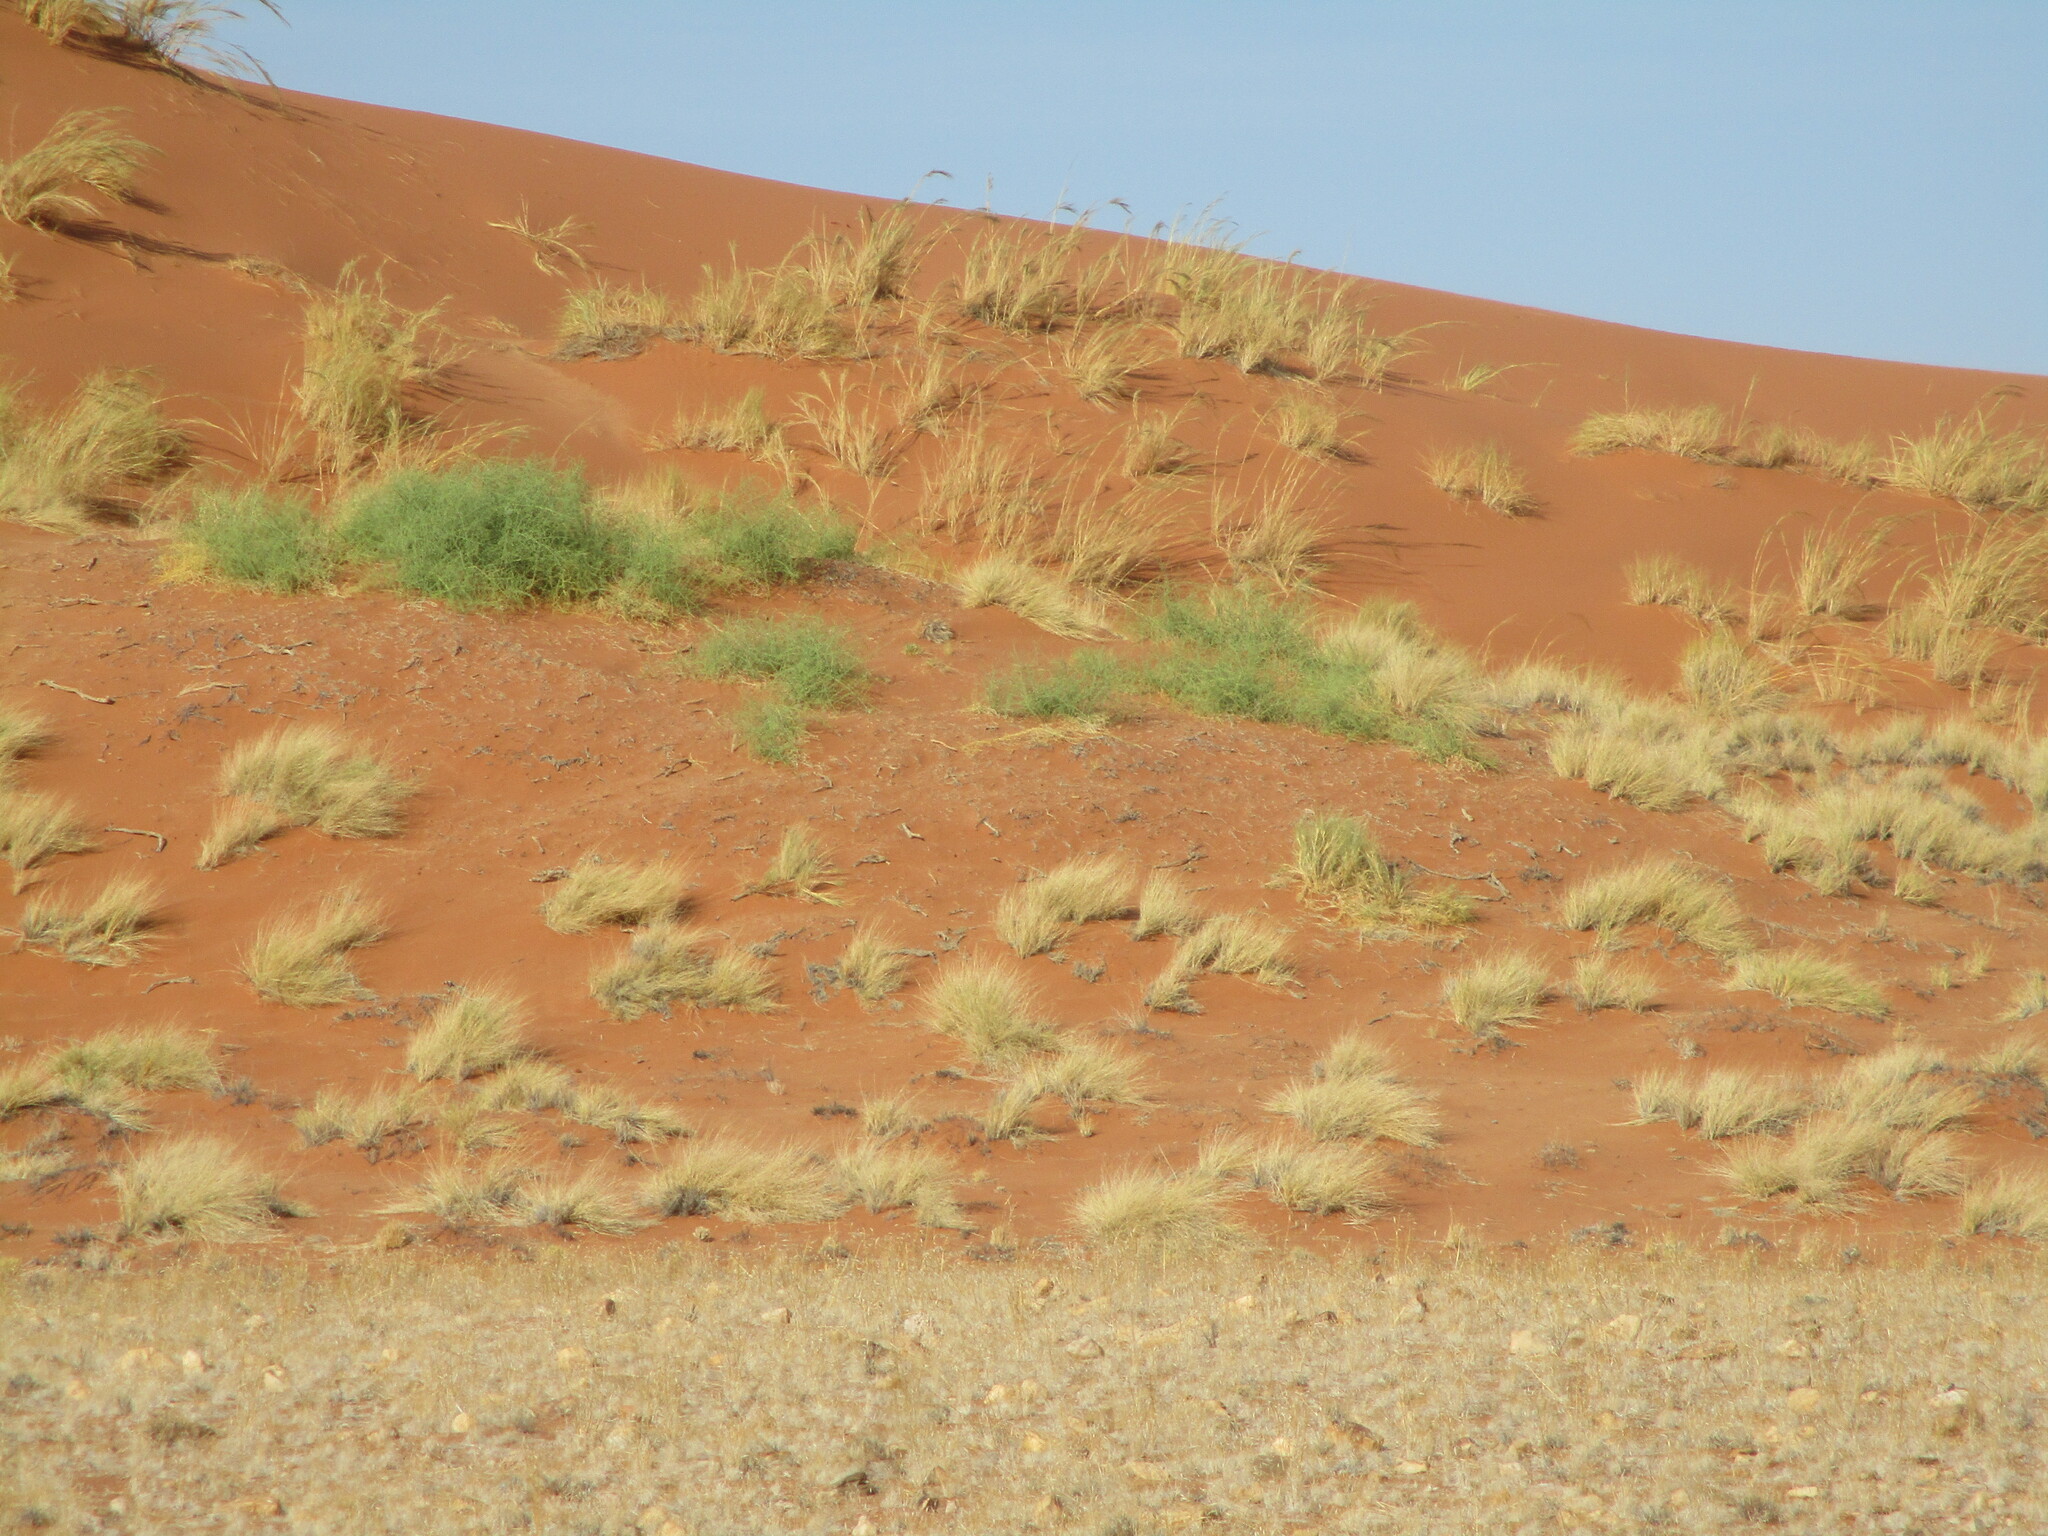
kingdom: Plantae
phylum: Tracheophyta
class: Magnoliopsida
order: Cucurbitales
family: Cucurbitaceae
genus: Acanthosicyos
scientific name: Acanthosicyos horridus
